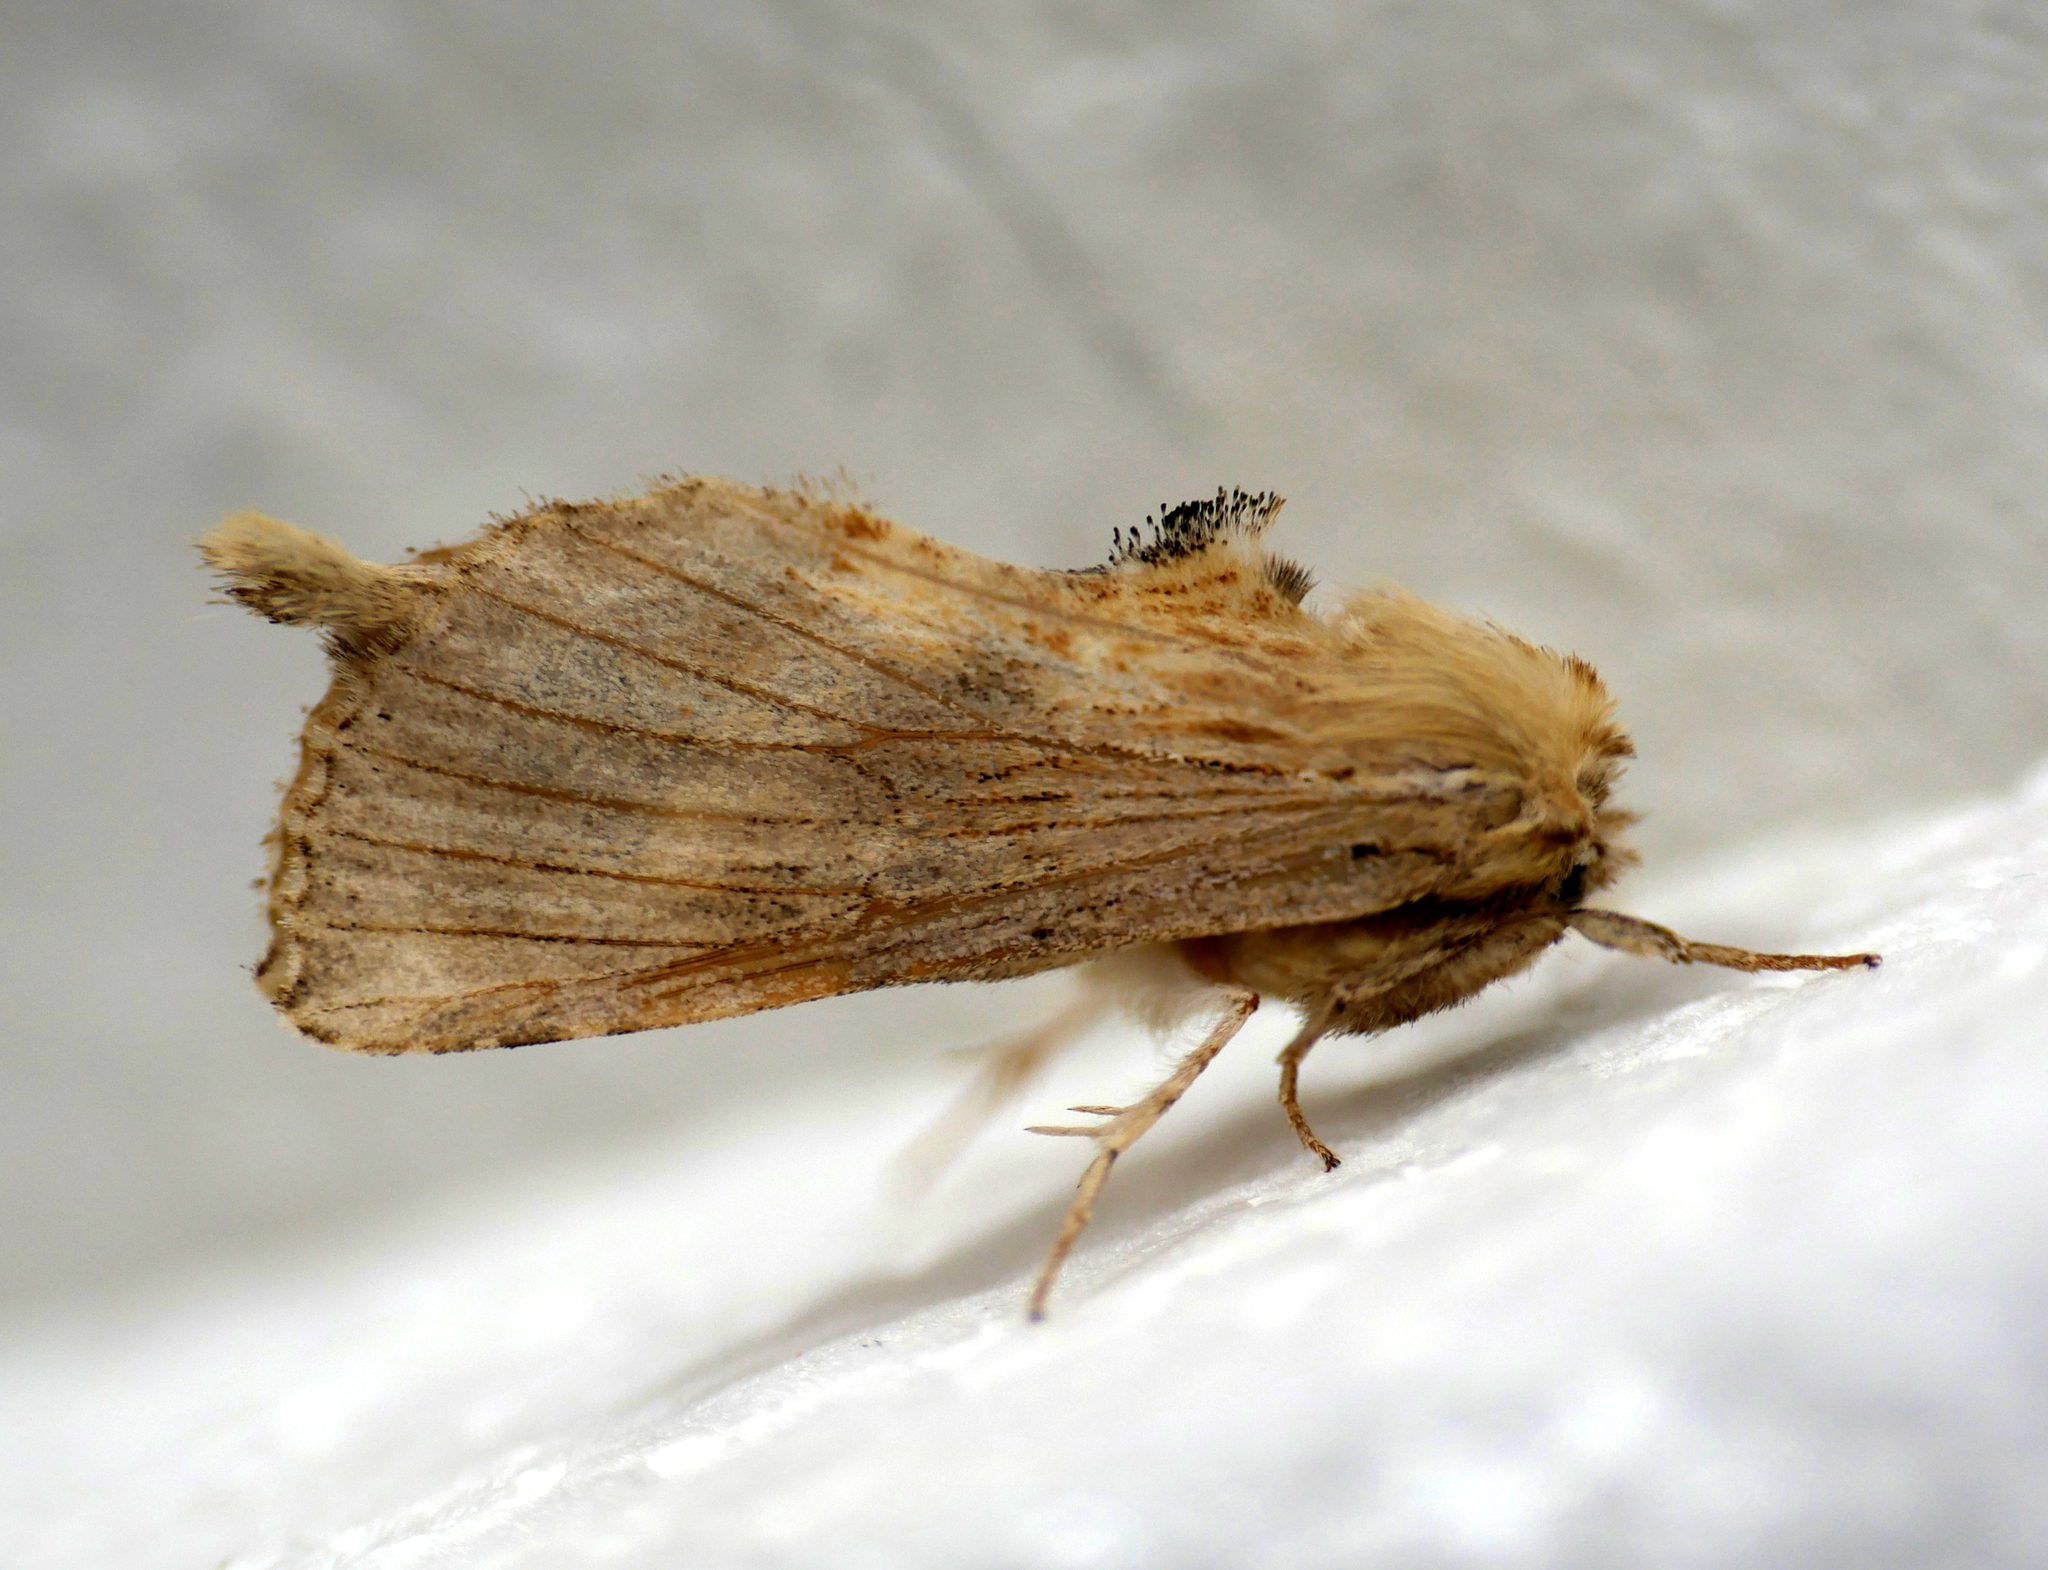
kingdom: Animalia
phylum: Arthropoda
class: Insecta
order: Lepidoptera
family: Notodontidae
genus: Pterostoma
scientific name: Pterostoma palpina
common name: Pale prominent
